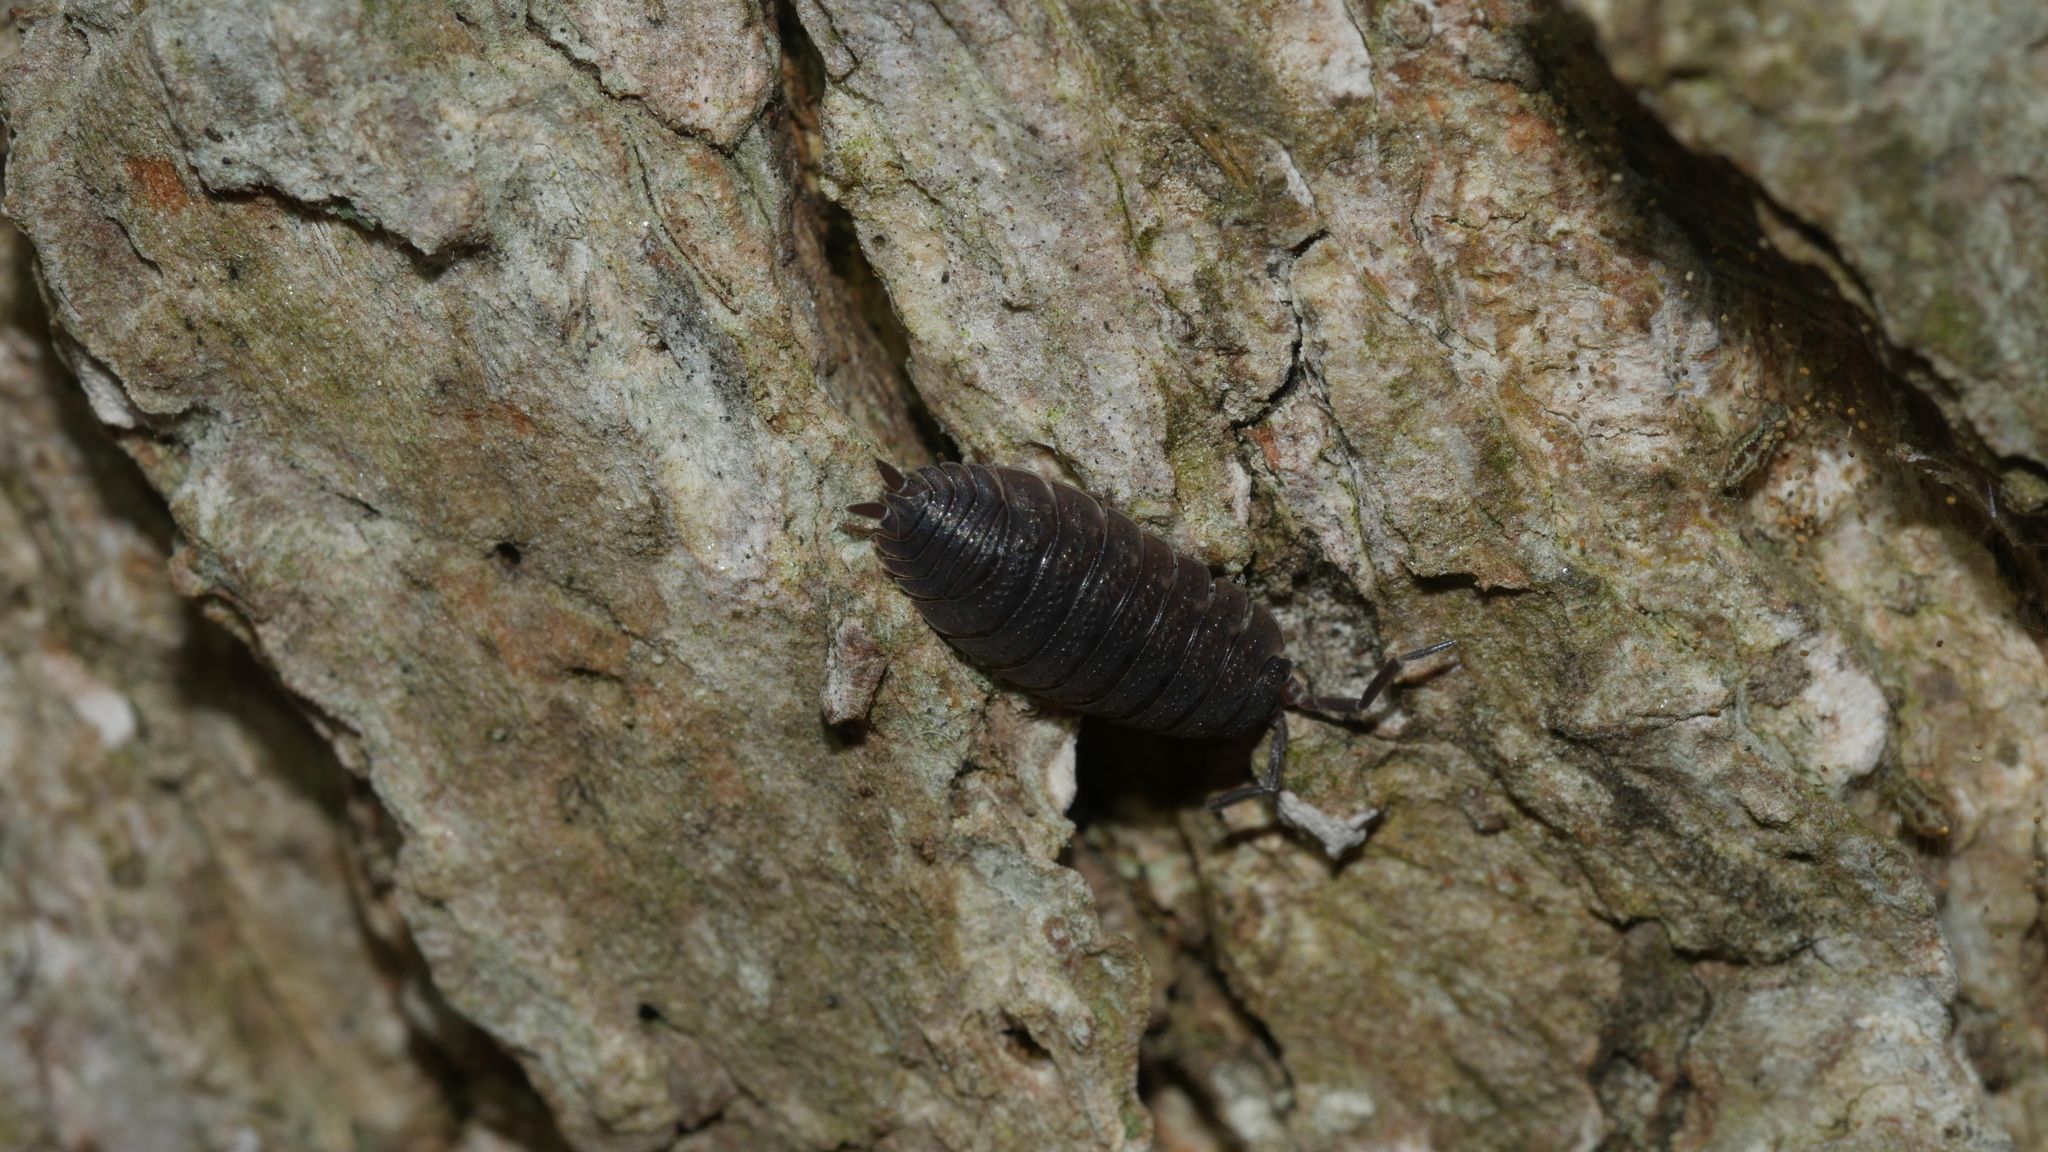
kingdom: Animalia
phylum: Arthropoda
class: Malacostraca
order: Isopoda
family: Porcellionidae
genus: Porcellio
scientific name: Porcellio scaber
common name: Common rough woodlouse
